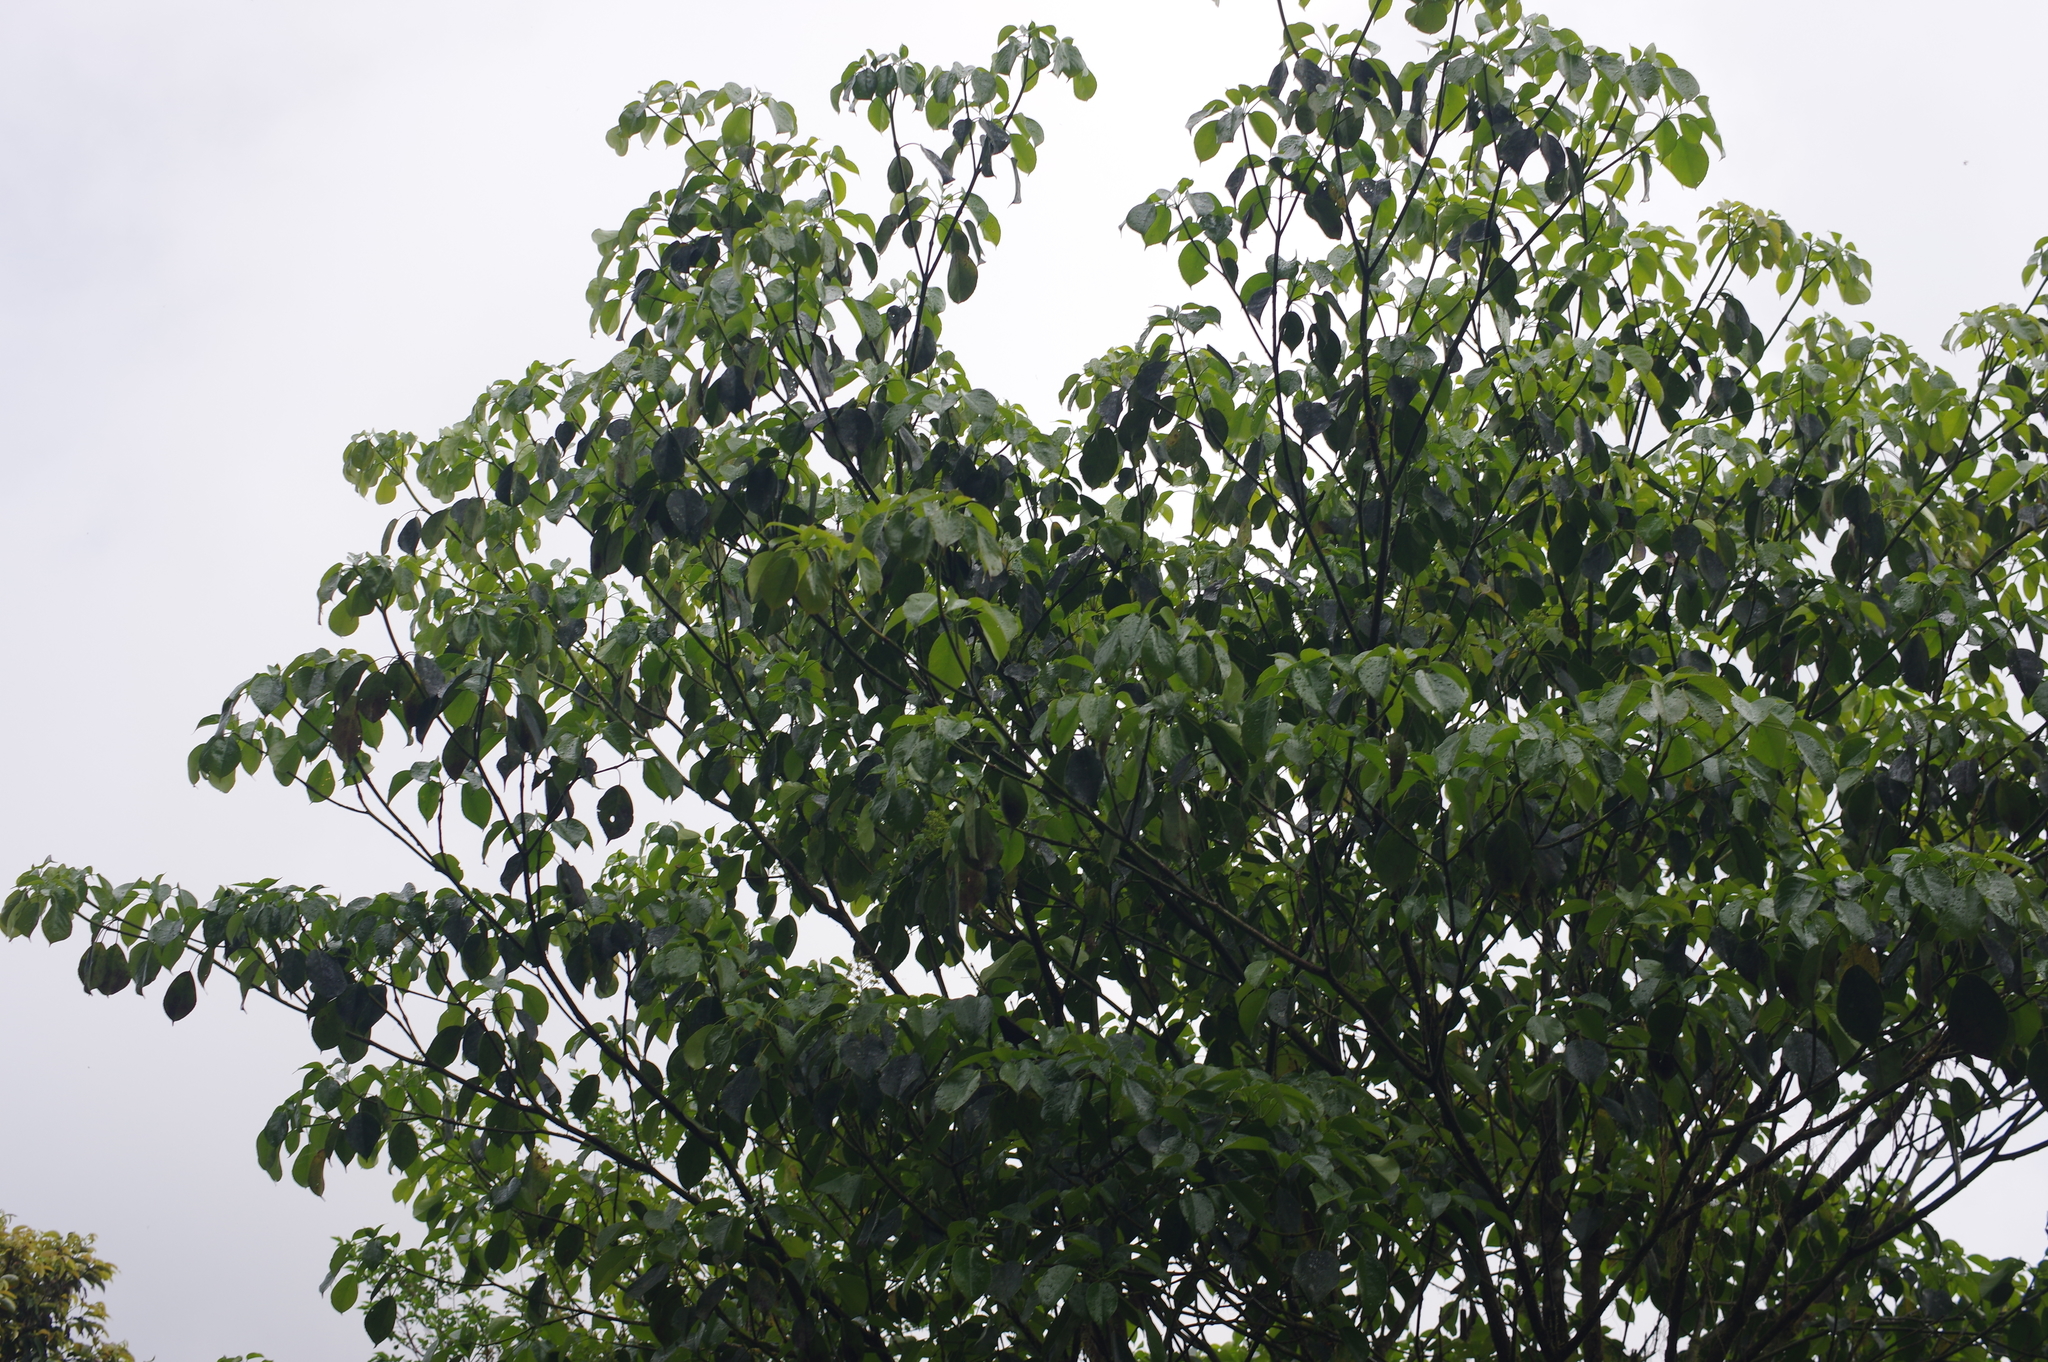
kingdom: Plantae
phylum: Tracheophyta
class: Magnoliopsida
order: Trochodendrales
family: Trochodendraceae
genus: Trochodendron
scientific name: Trochodendron aralioides
